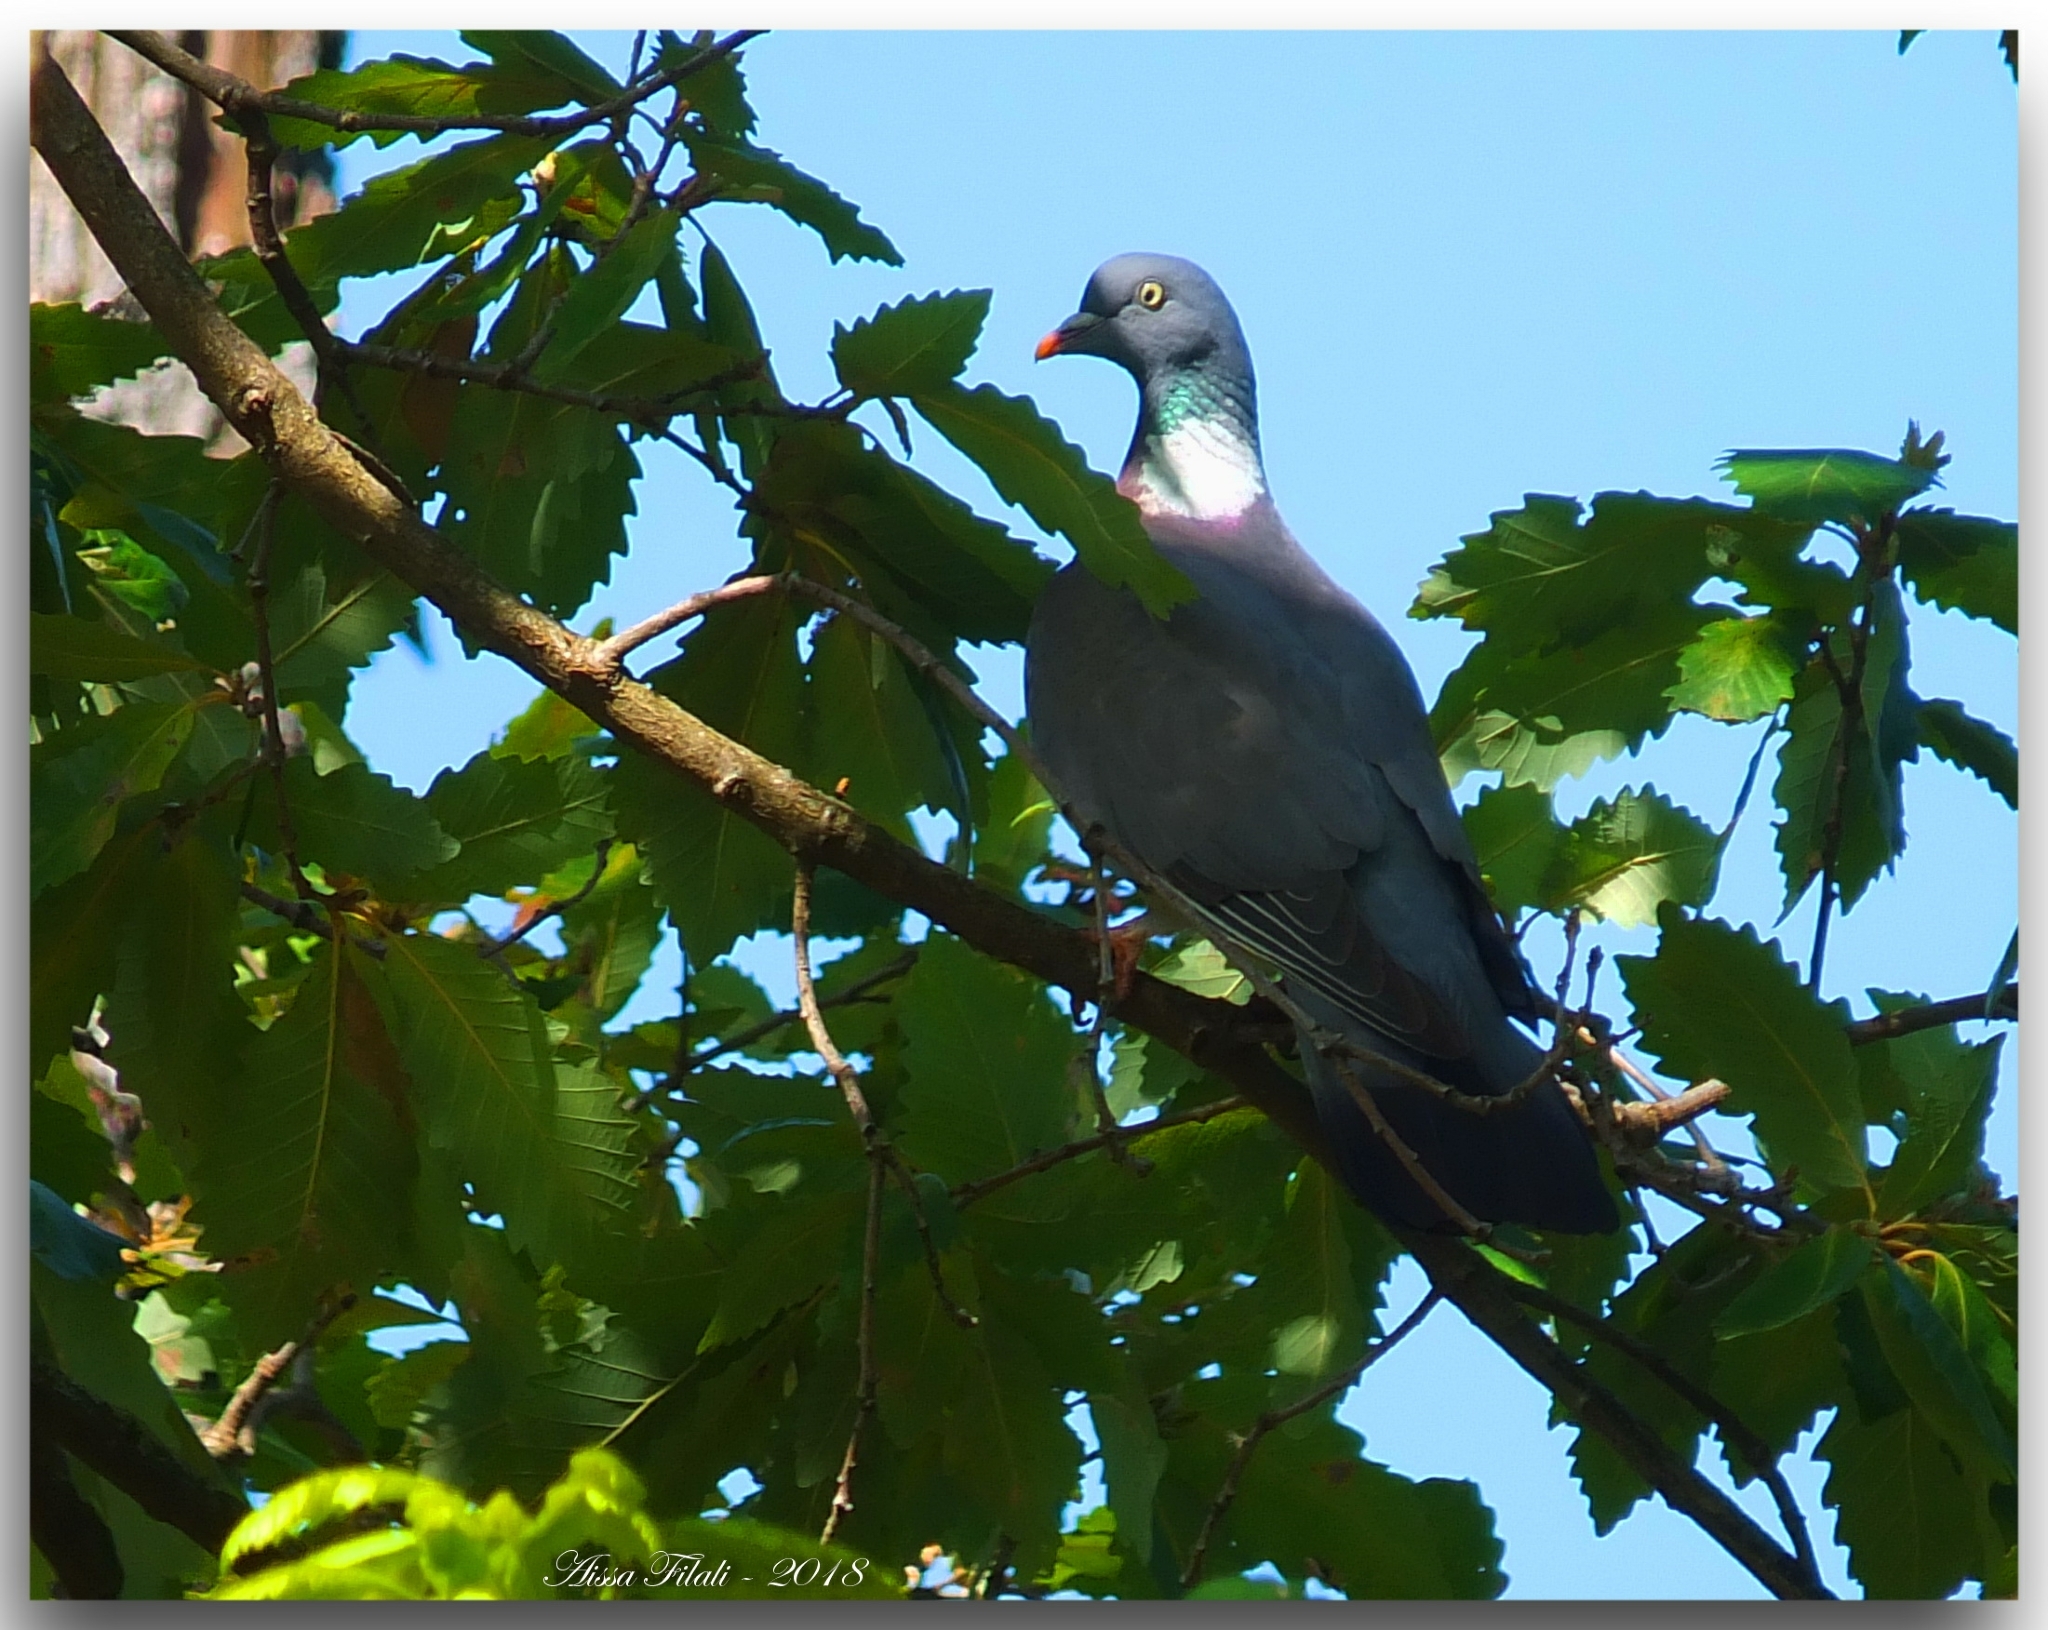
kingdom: Animalia
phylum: Chordata
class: Aves
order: Columbiformes
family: Columbidae
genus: Columba
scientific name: Columba palumbus
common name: Common wood pigeon
